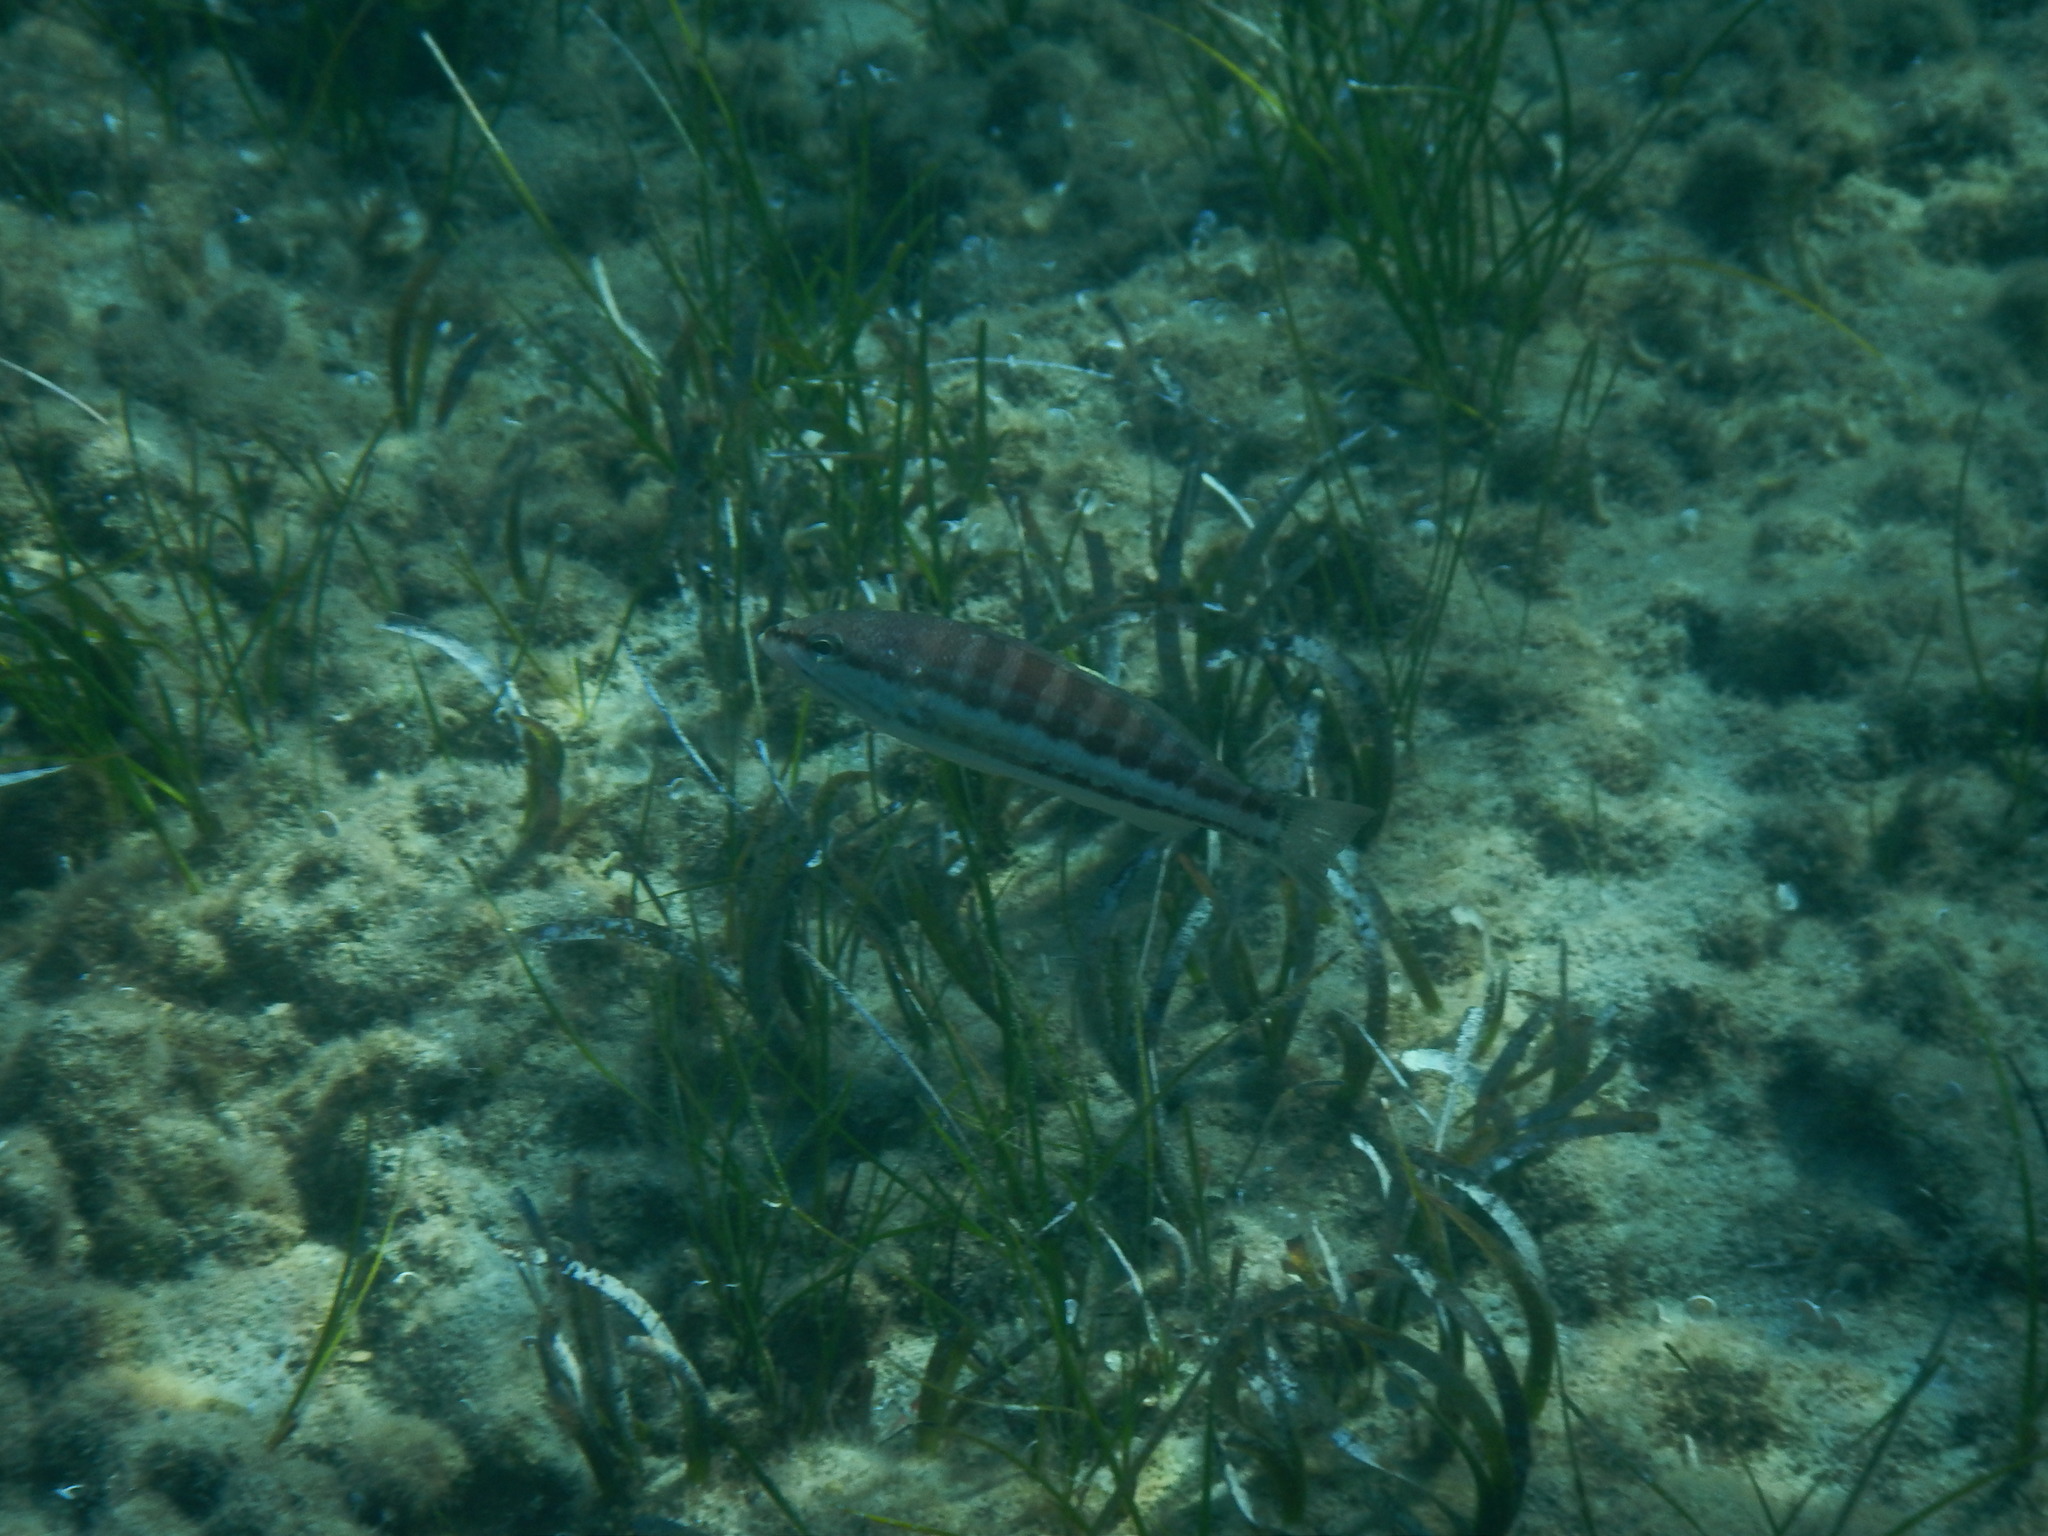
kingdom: Animalia
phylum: Chordata
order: Perciformes
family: Serranidae
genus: Serranus
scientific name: Serranus cabrilla
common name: Comber
